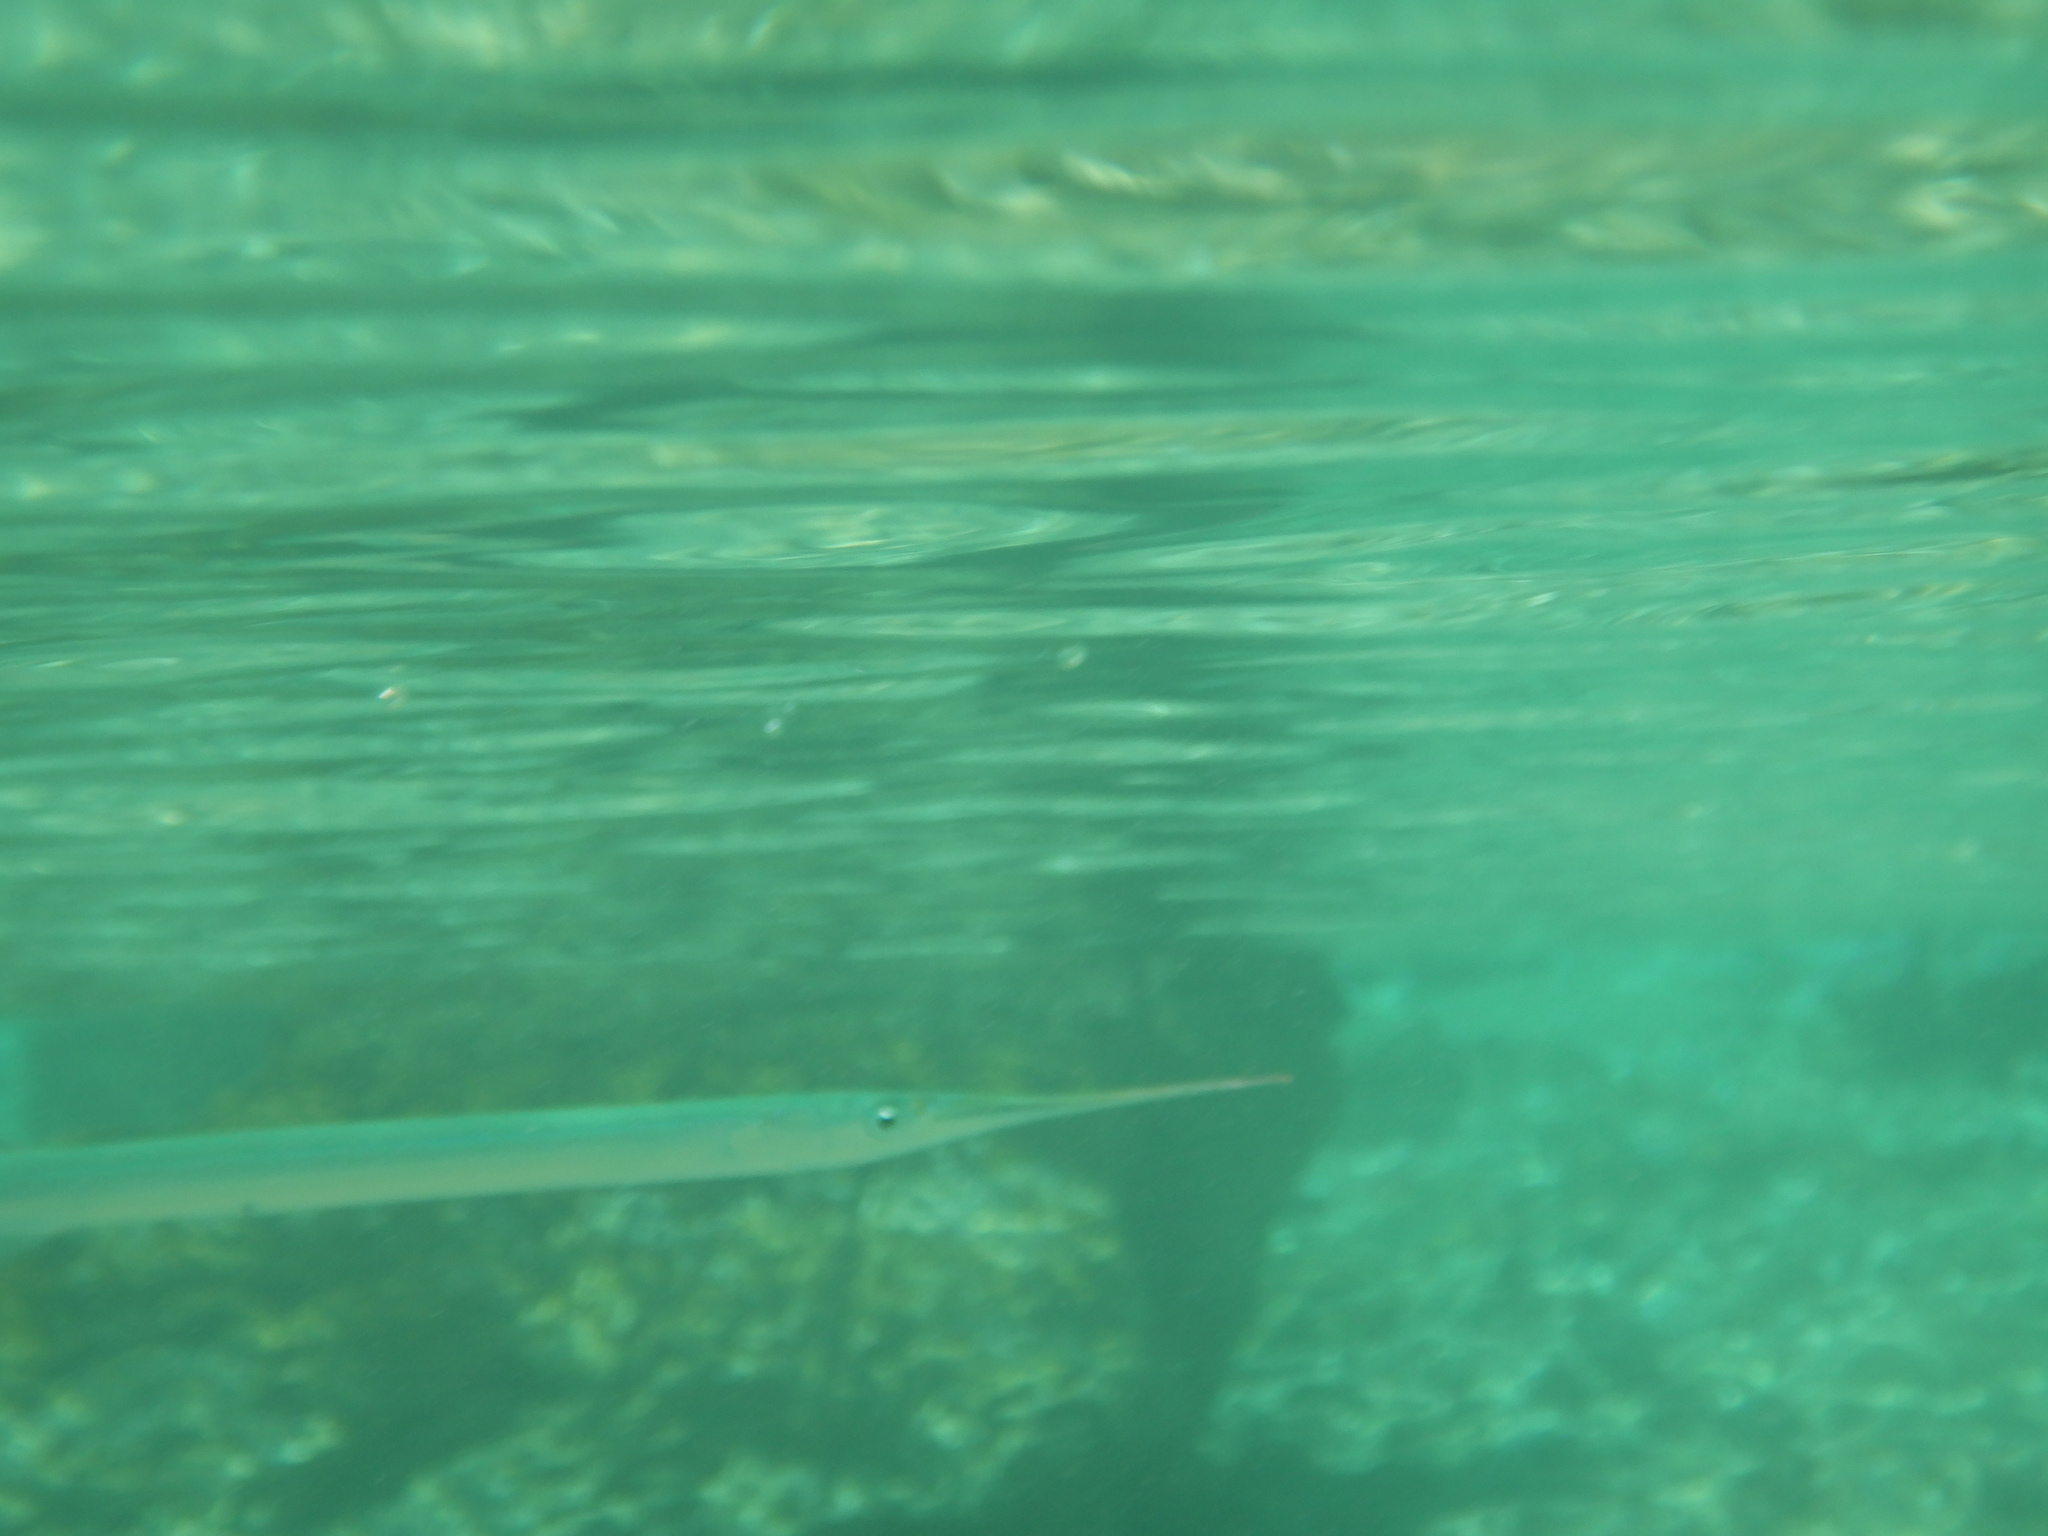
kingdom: Animalia
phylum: Chordata
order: Beloniformes
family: Belonidae
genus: Belone
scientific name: Belone
